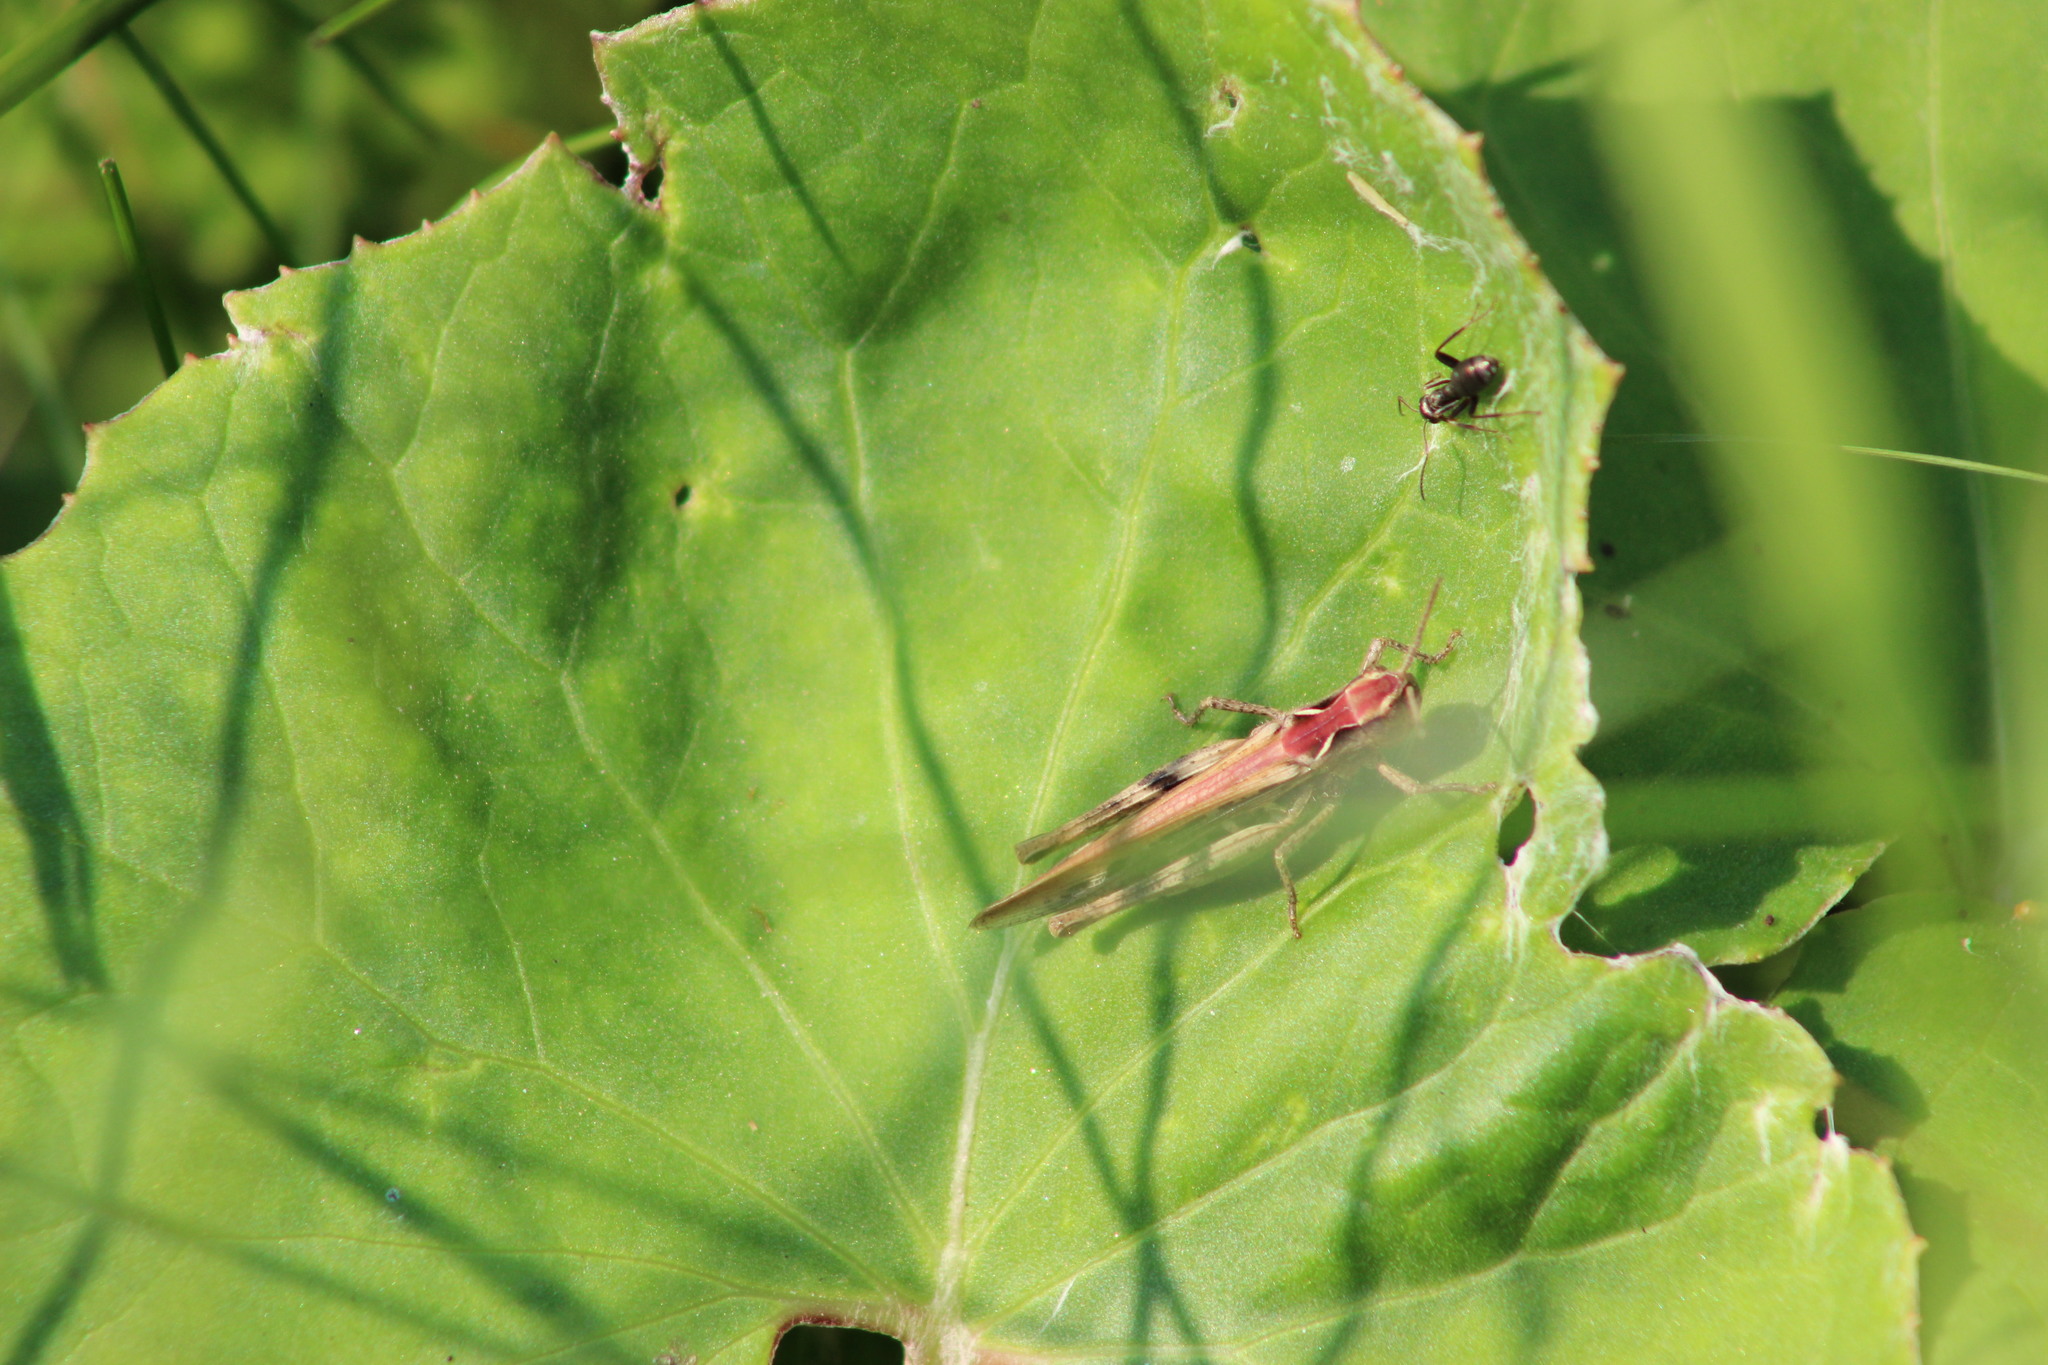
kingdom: Animalia
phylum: Arthropoda
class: Insecta
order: Orthoptera
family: Acrididae
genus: Glyptobothrus
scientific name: Glyptobothrus
